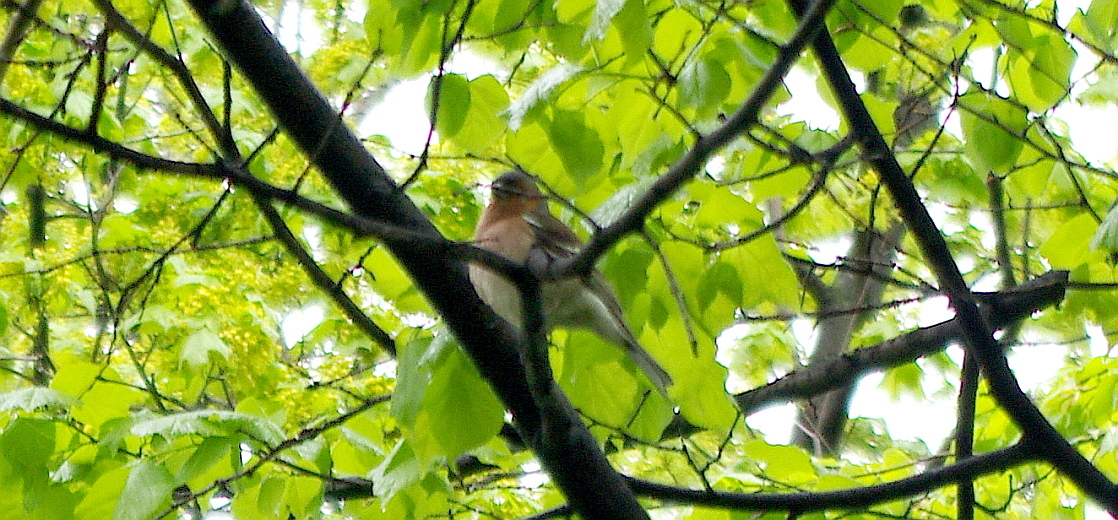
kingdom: Animalia
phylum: Chordata
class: Aves
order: Passeriformes
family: Fringillidae
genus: Fringilla
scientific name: Fringilla coelebs
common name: Common chaffinch
